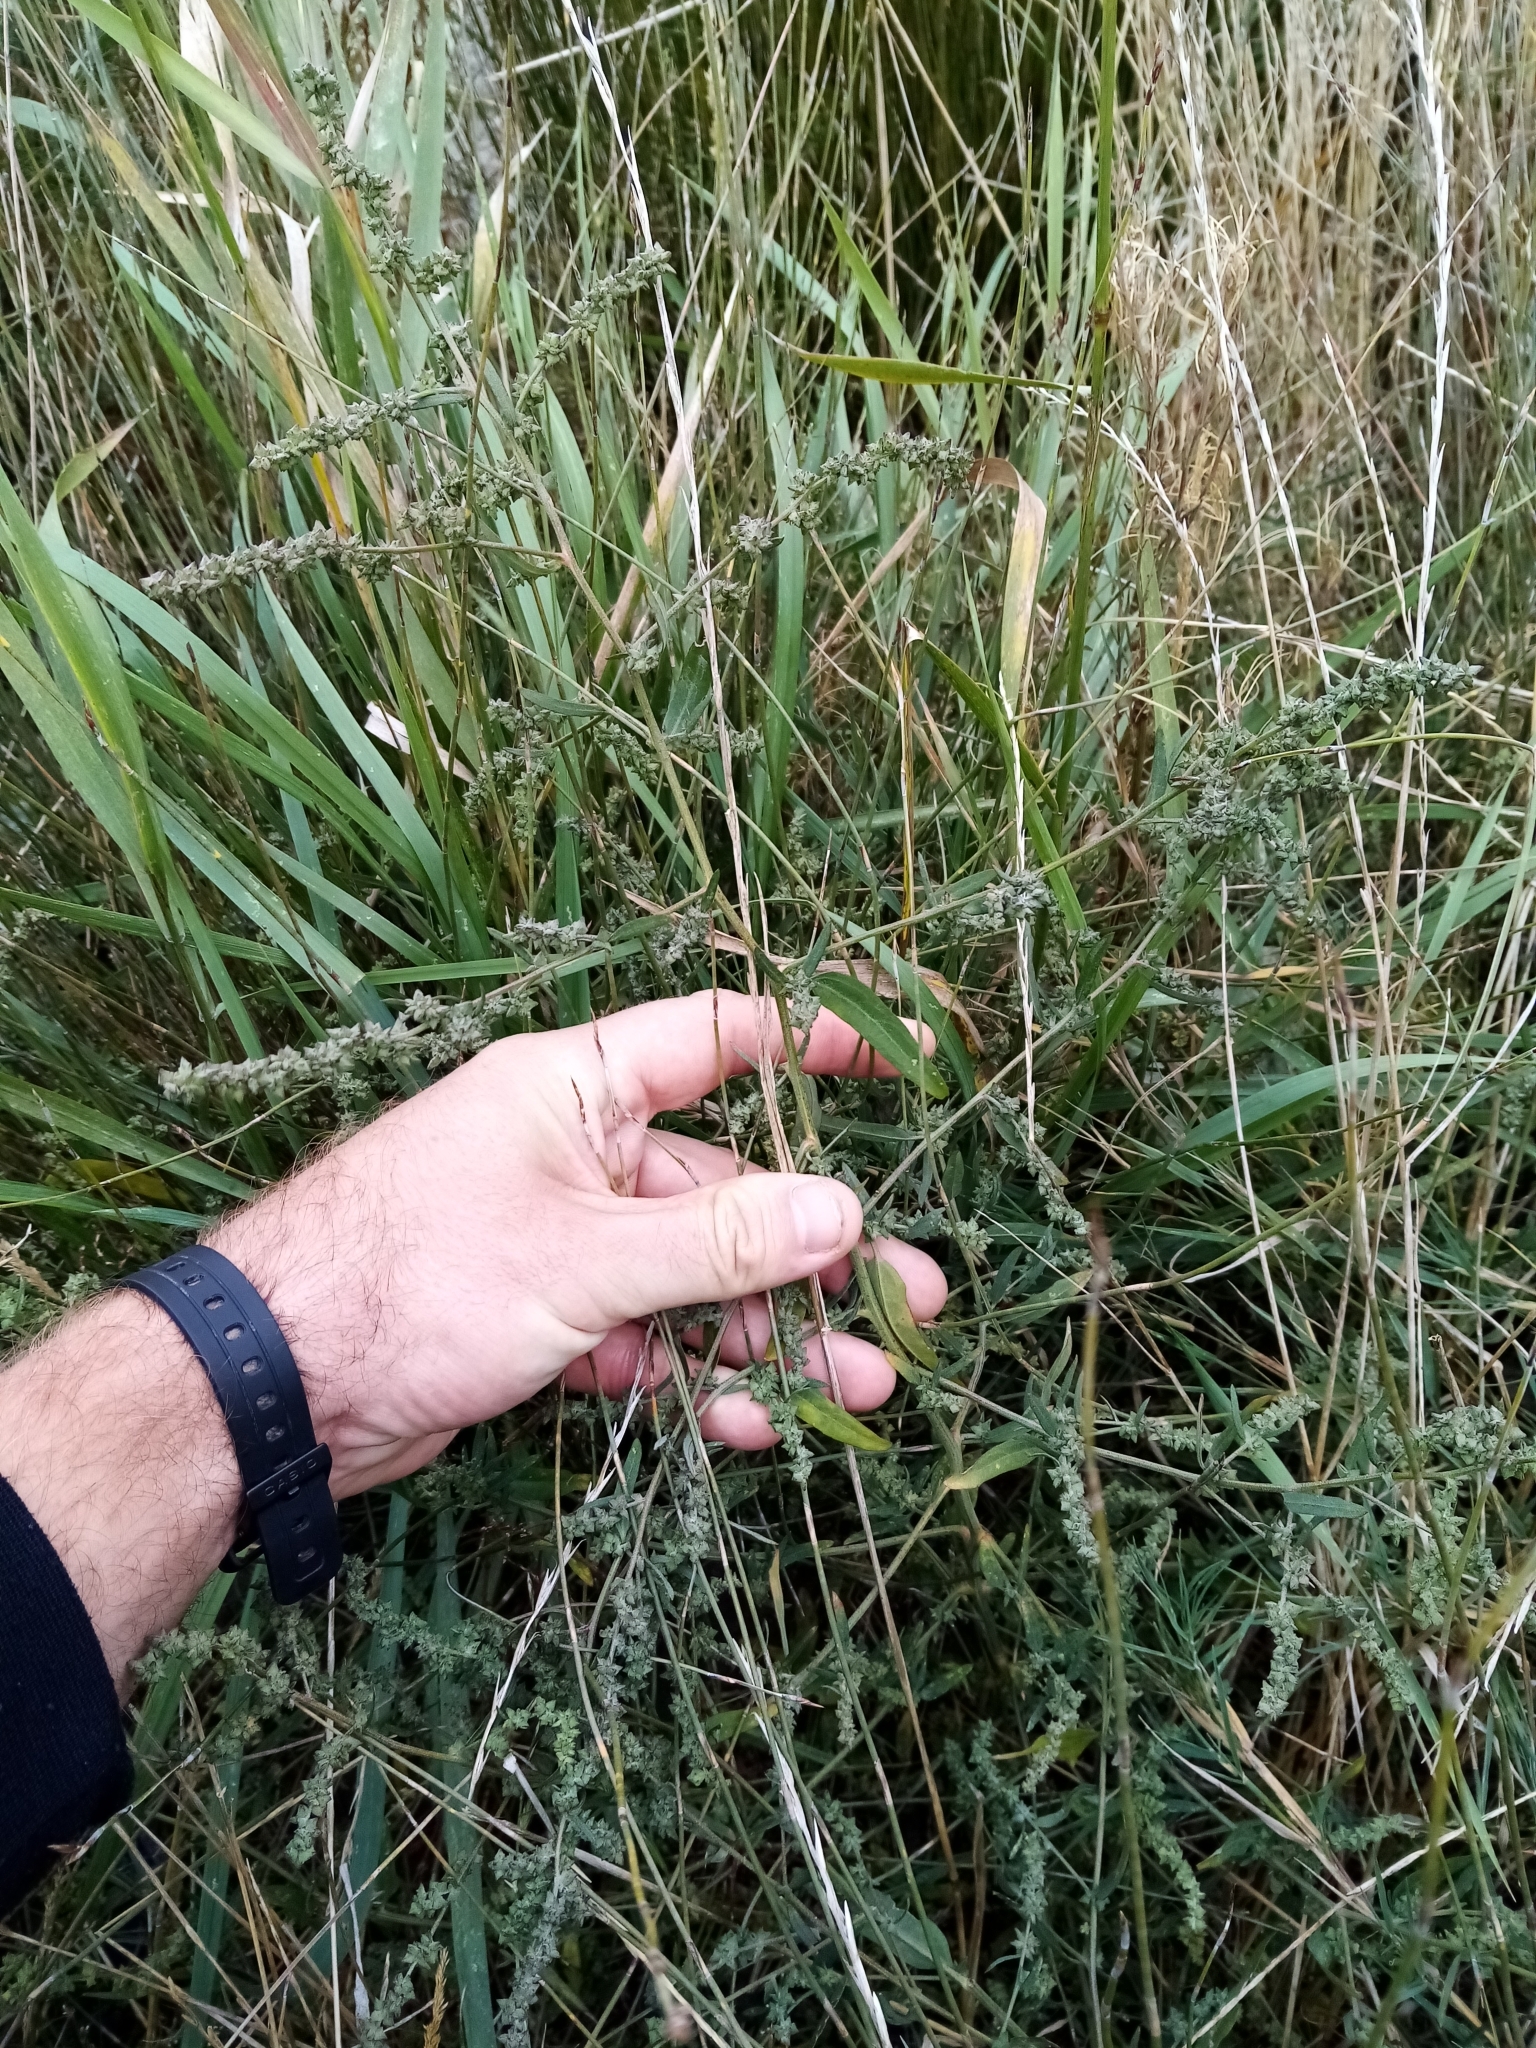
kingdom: Plantae
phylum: Tracheophyta
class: Magnoliopsida
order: Caryophyllales
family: Amaranthaceae
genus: Atriplex
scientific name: Atriplex patula
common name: Common orache
